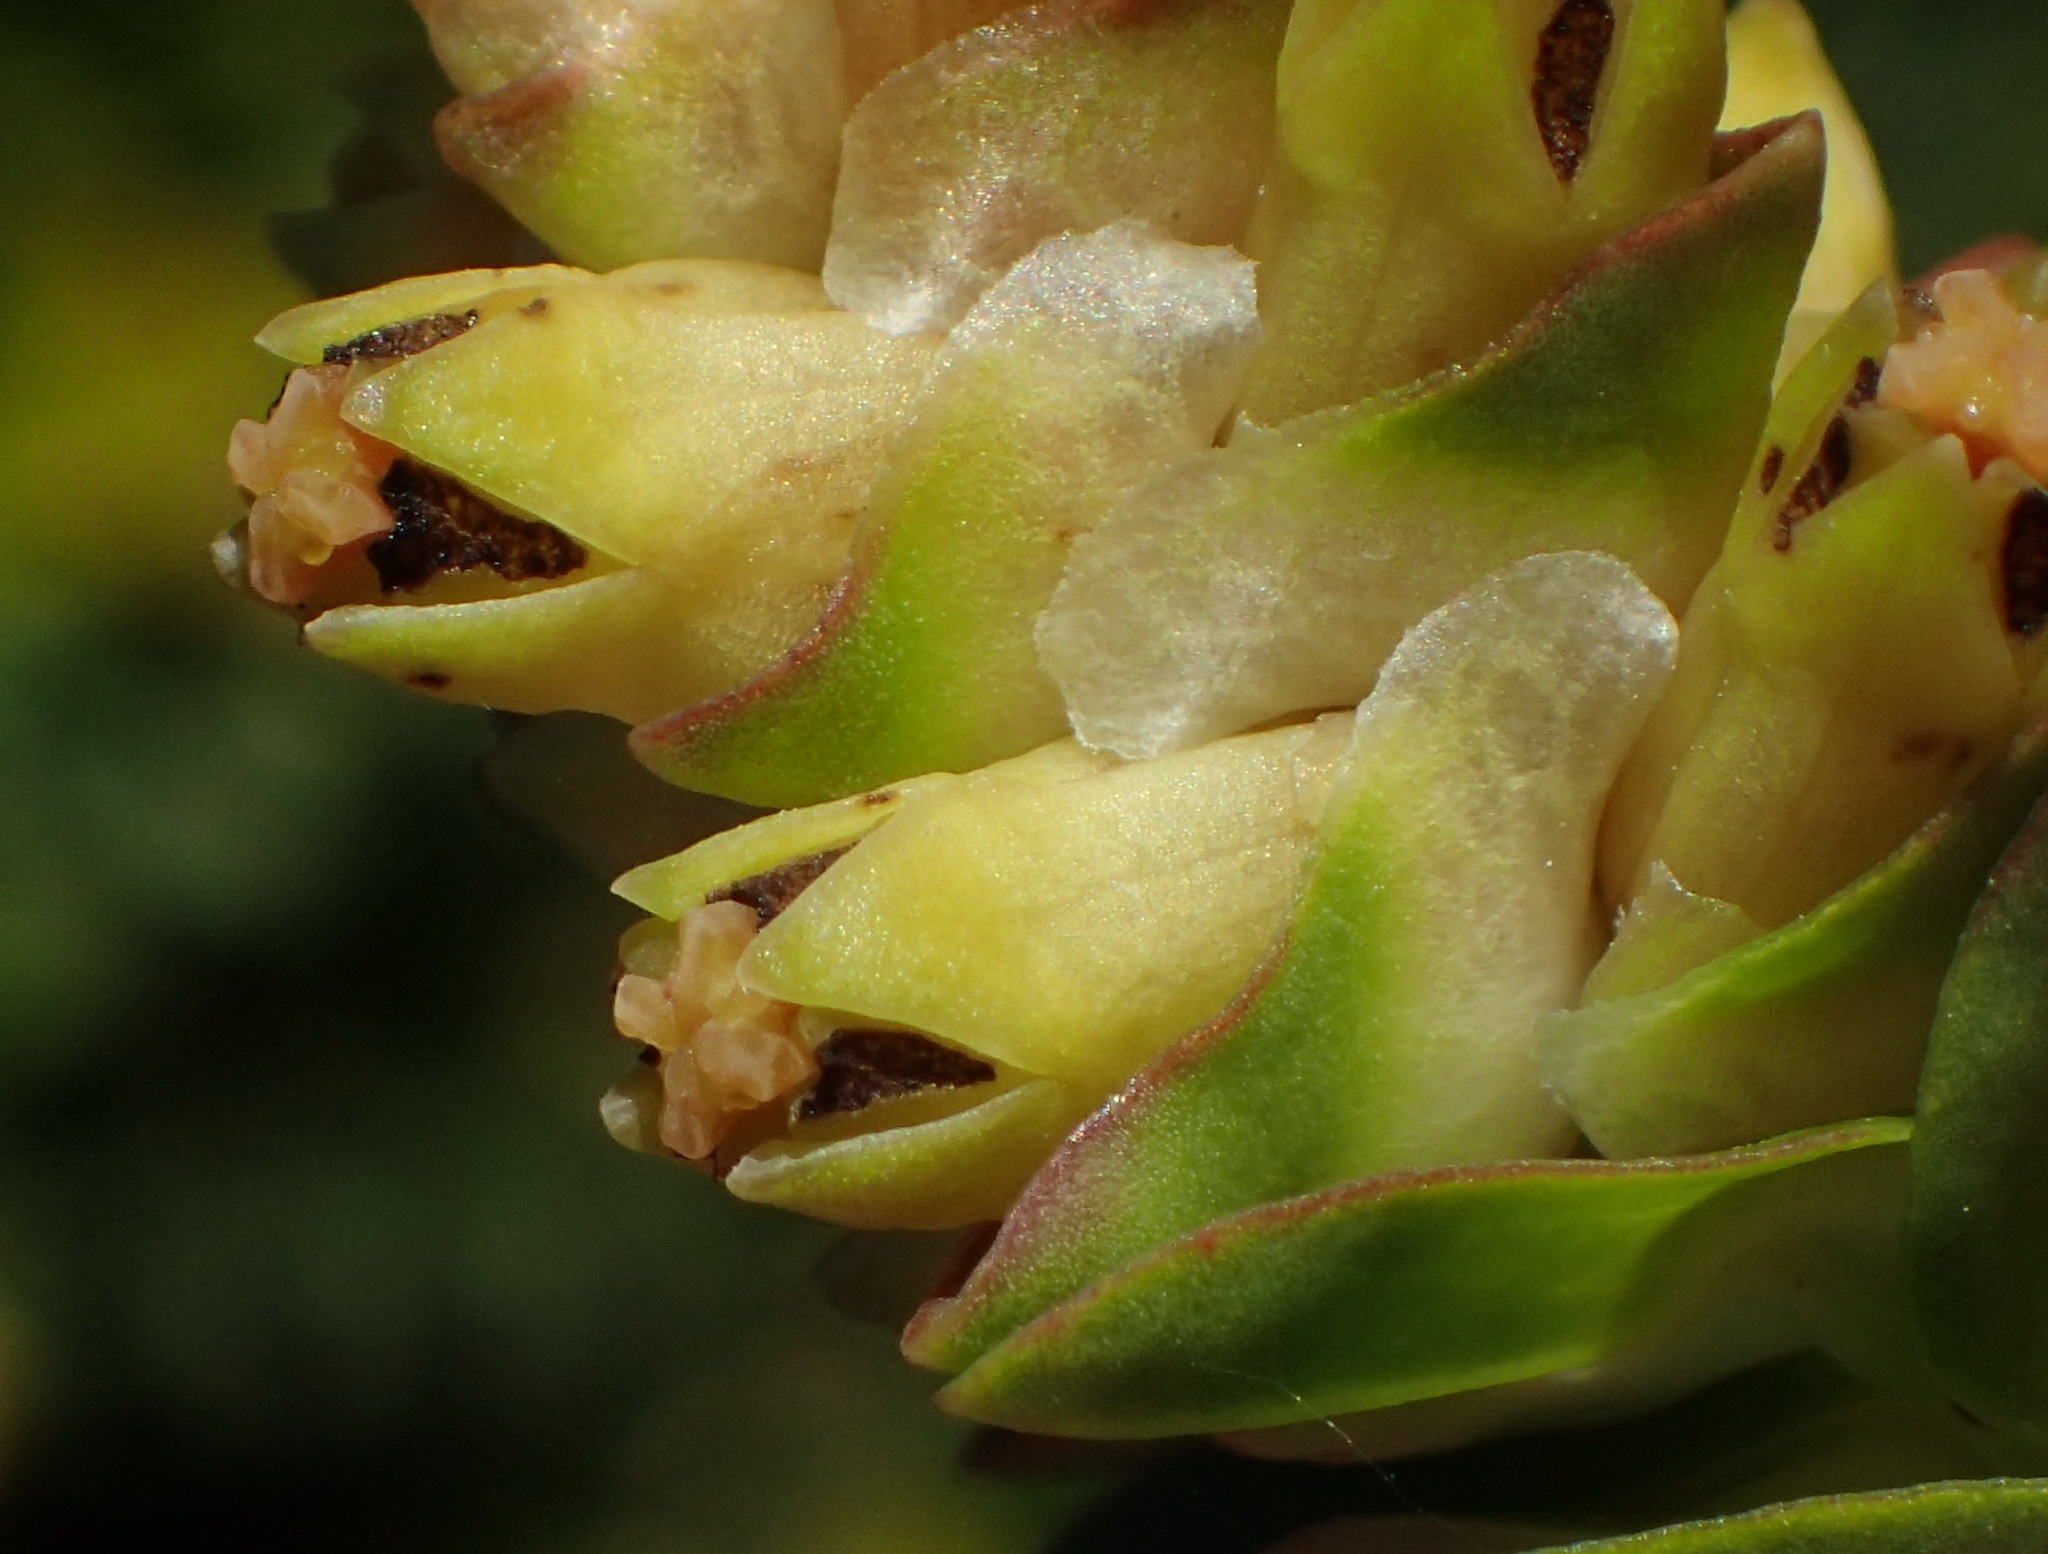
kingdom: Plantae
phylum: Tracheophyta
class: Magnoliopsida
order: Myrtales
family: Penaeaceae
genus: Penaea
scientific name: Penaea cneorum
